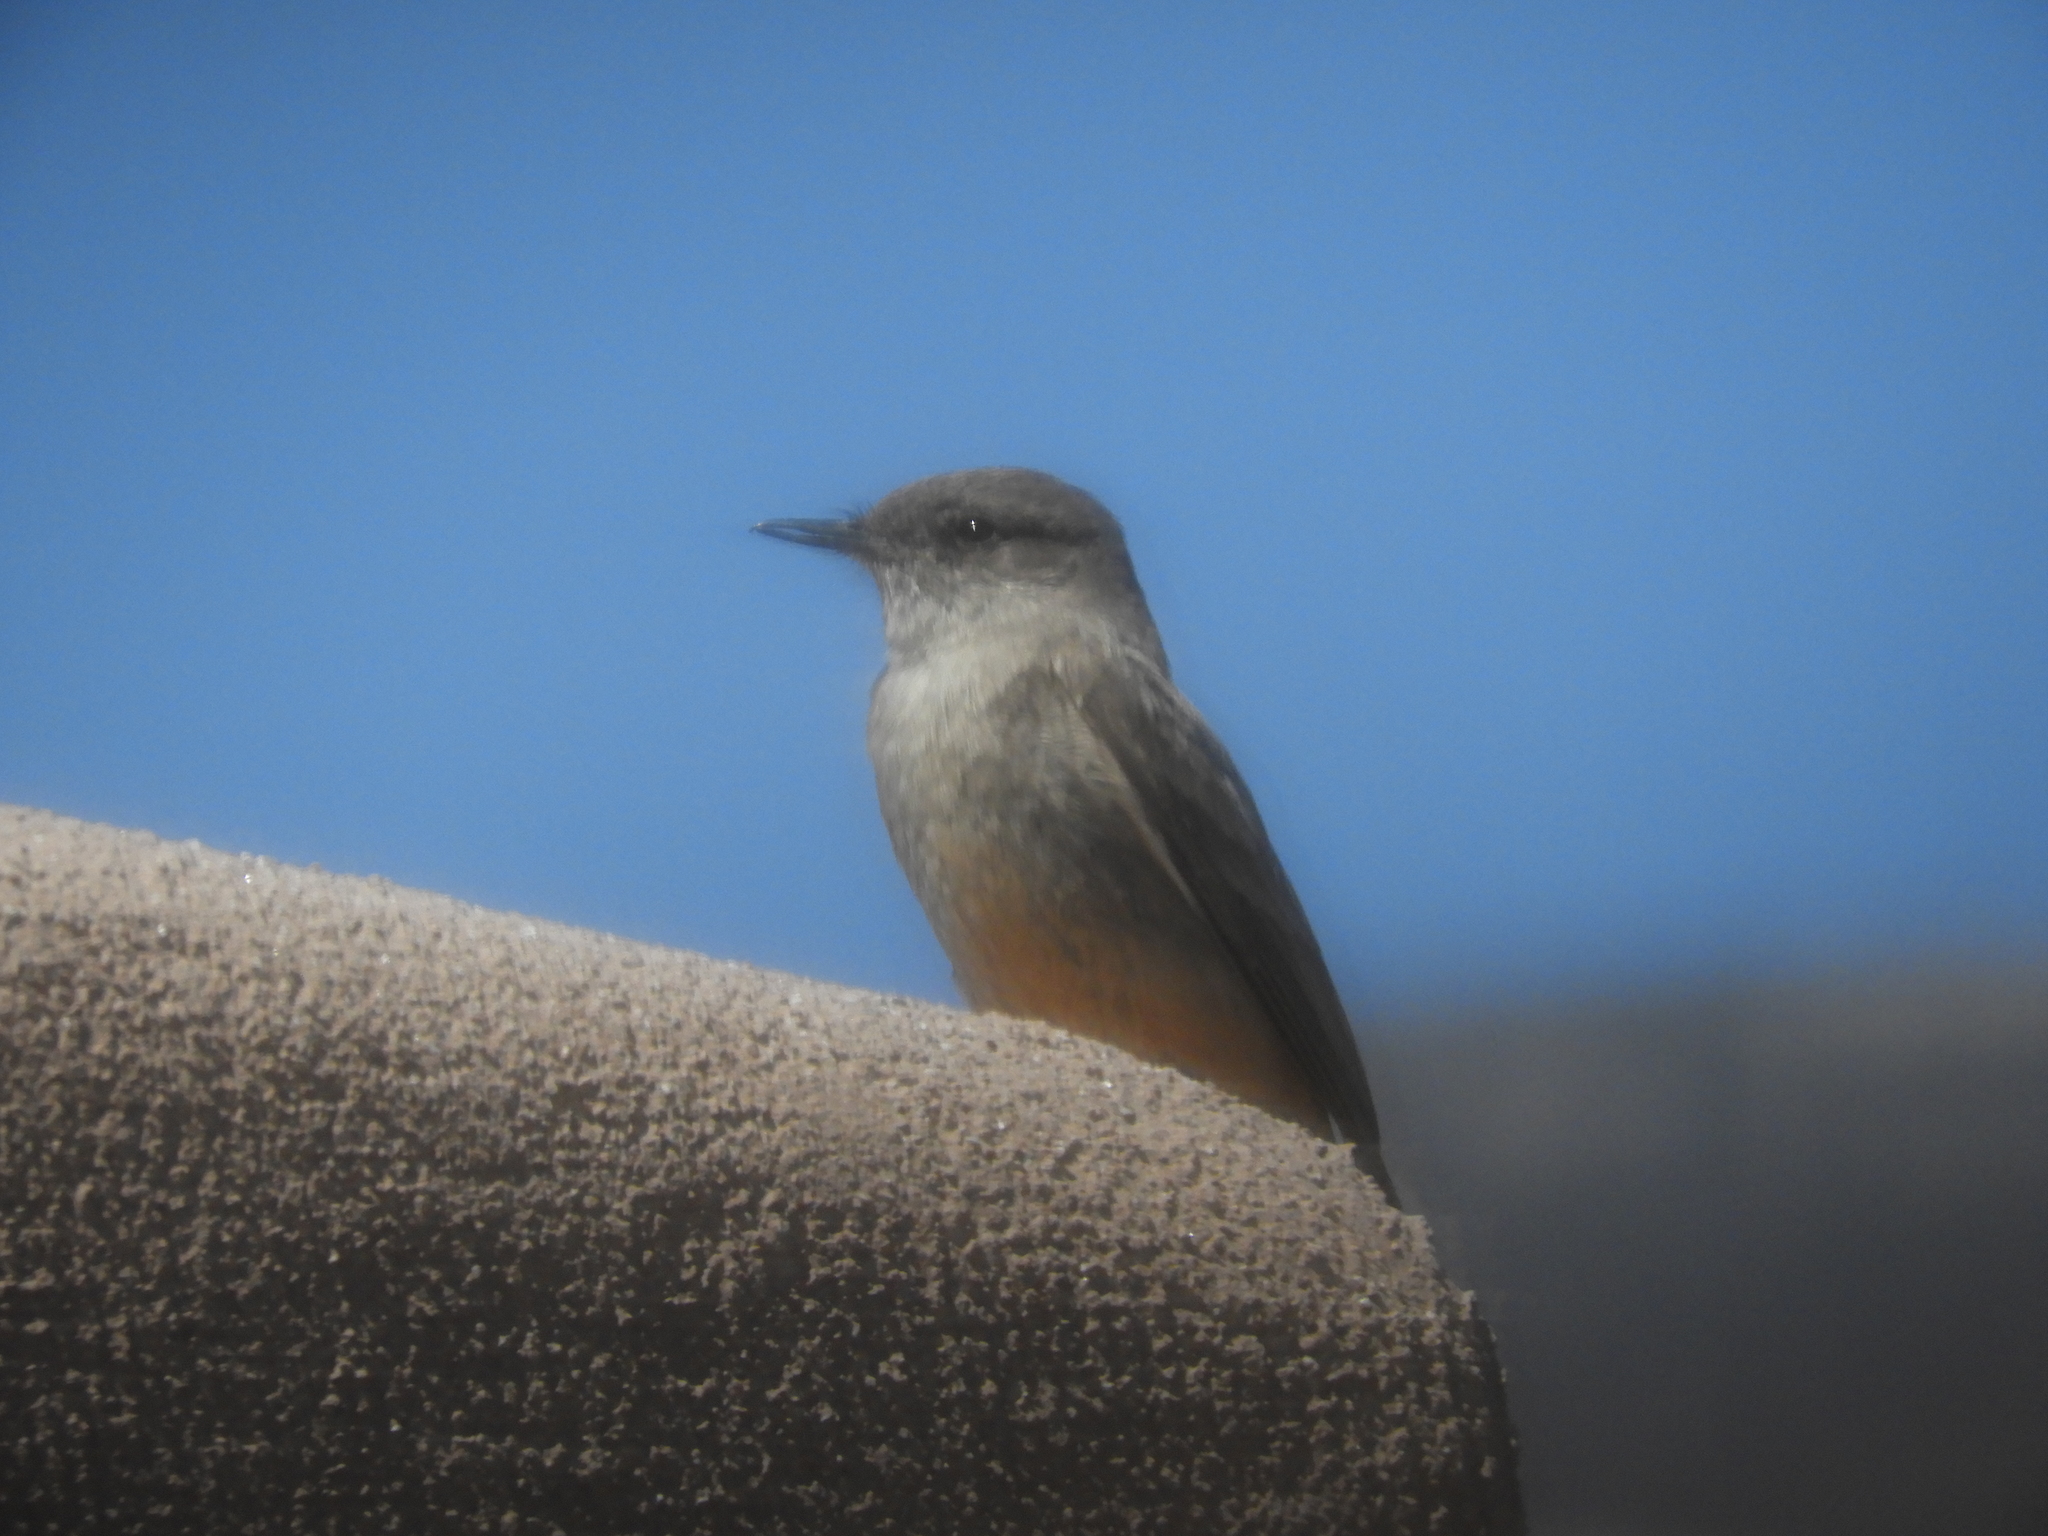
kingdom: Animalia
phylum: Chordata
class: Aves
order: Passeriformes
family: Tyrannidae
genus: Sayornis
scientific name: Sayornis saya
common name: Say's phoebe
